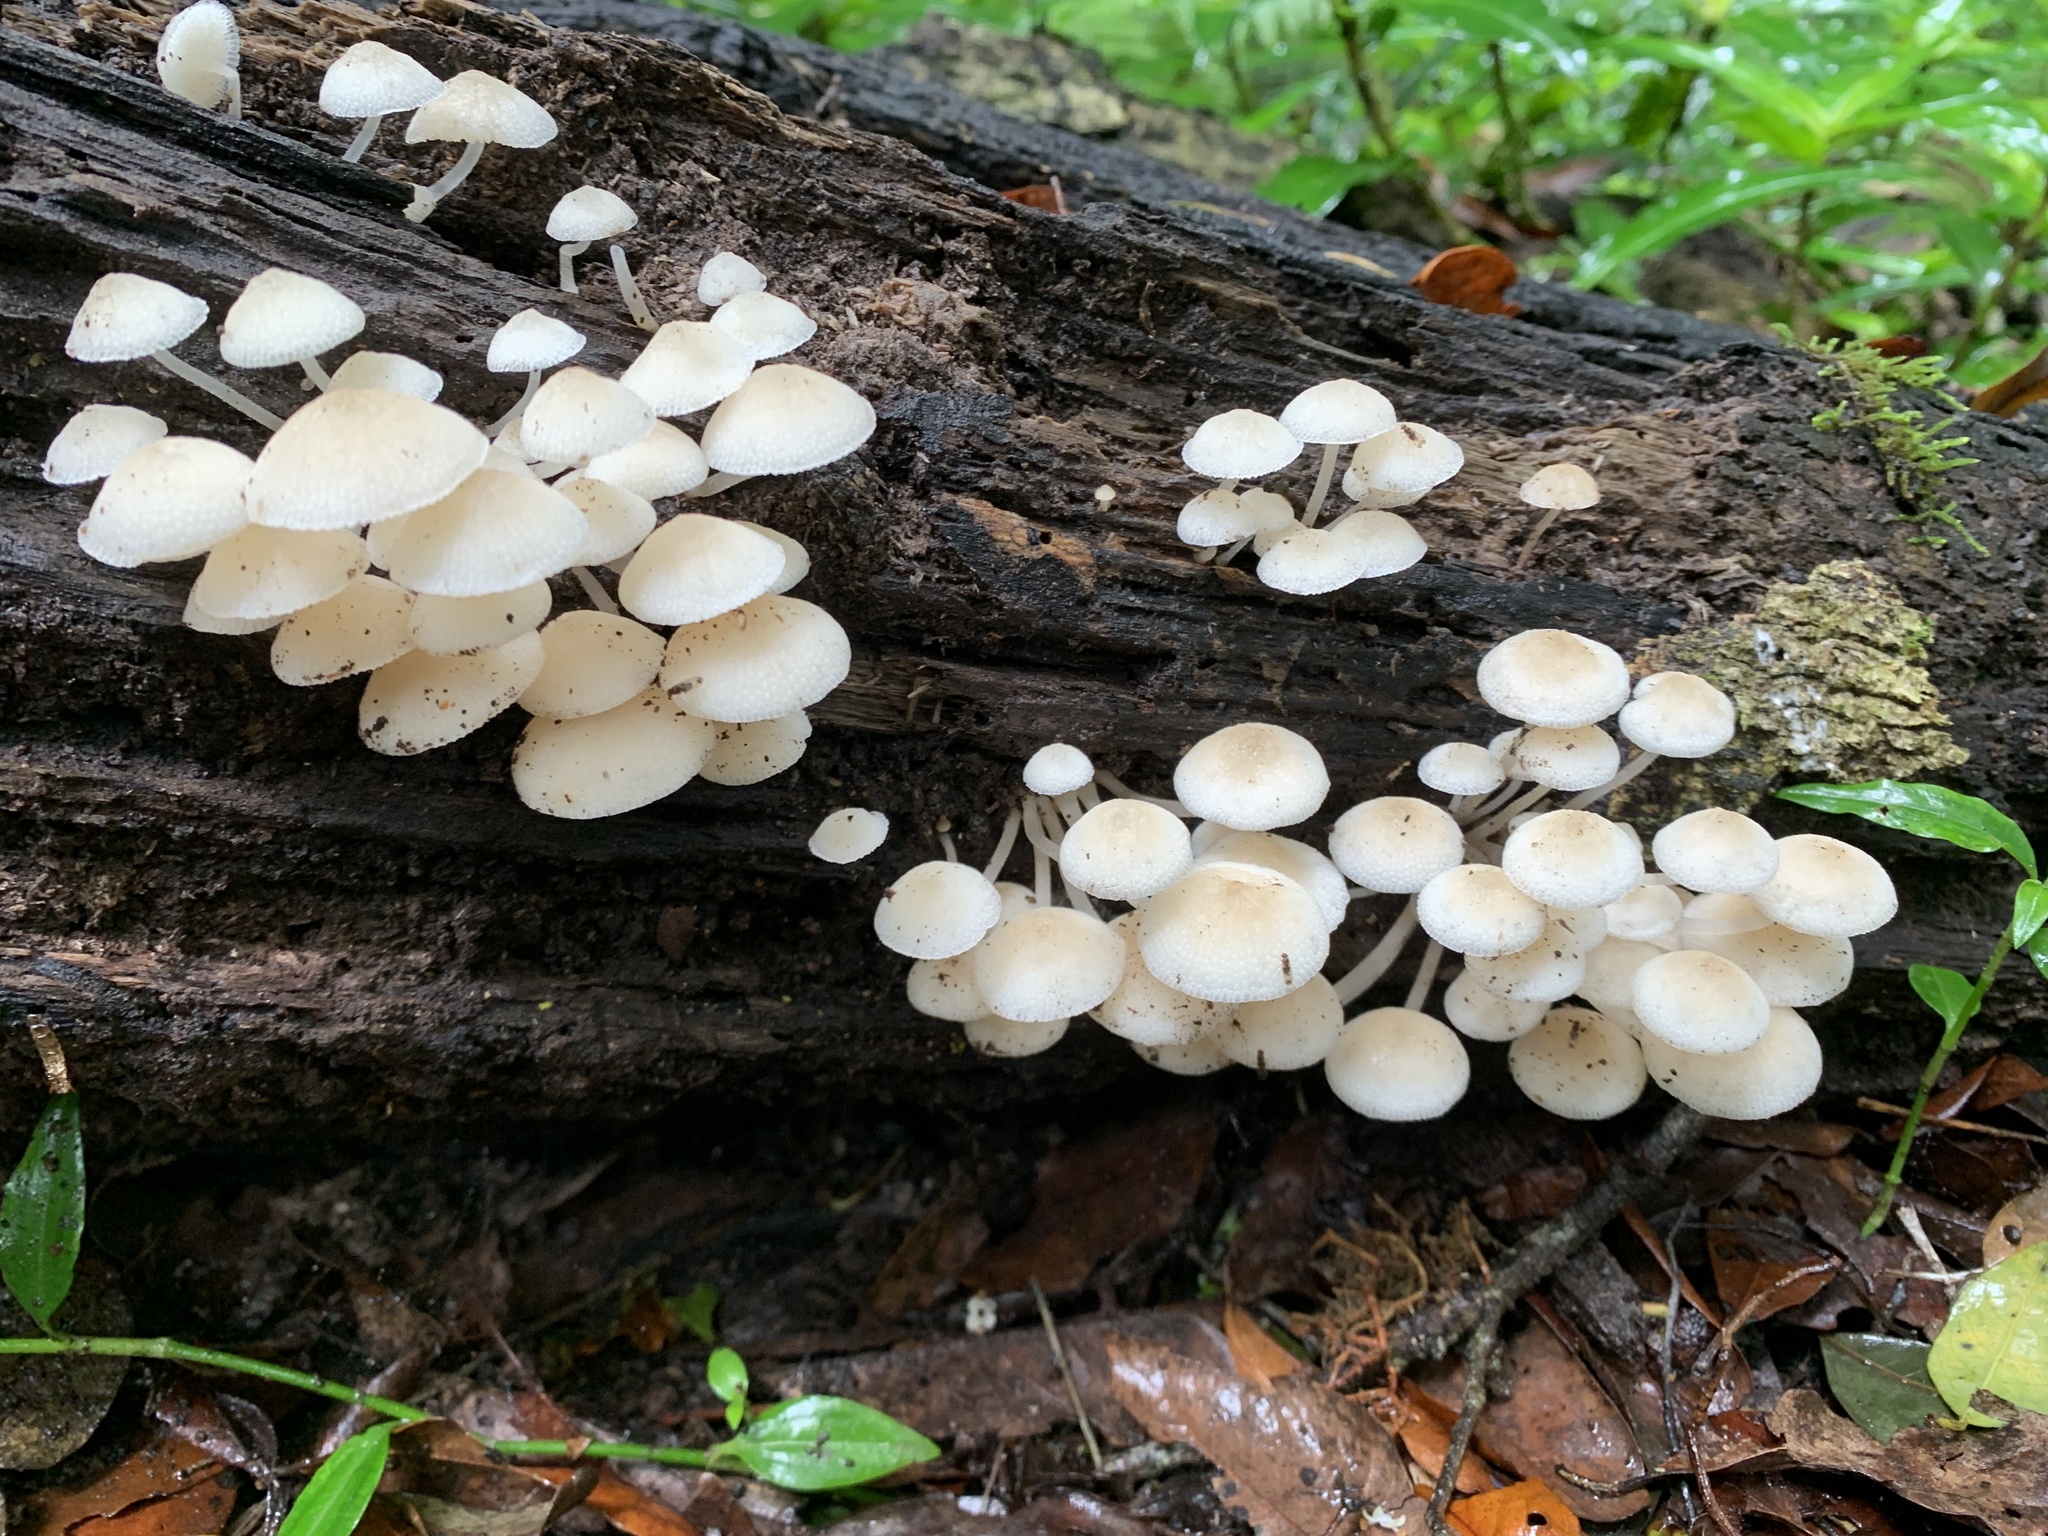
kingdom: Fungi
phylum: Basidiomycota
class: Agaricomycetes
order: Agaricales
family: Mycenaceae
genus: Filoboletus
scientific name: Filoboletus manipularis
